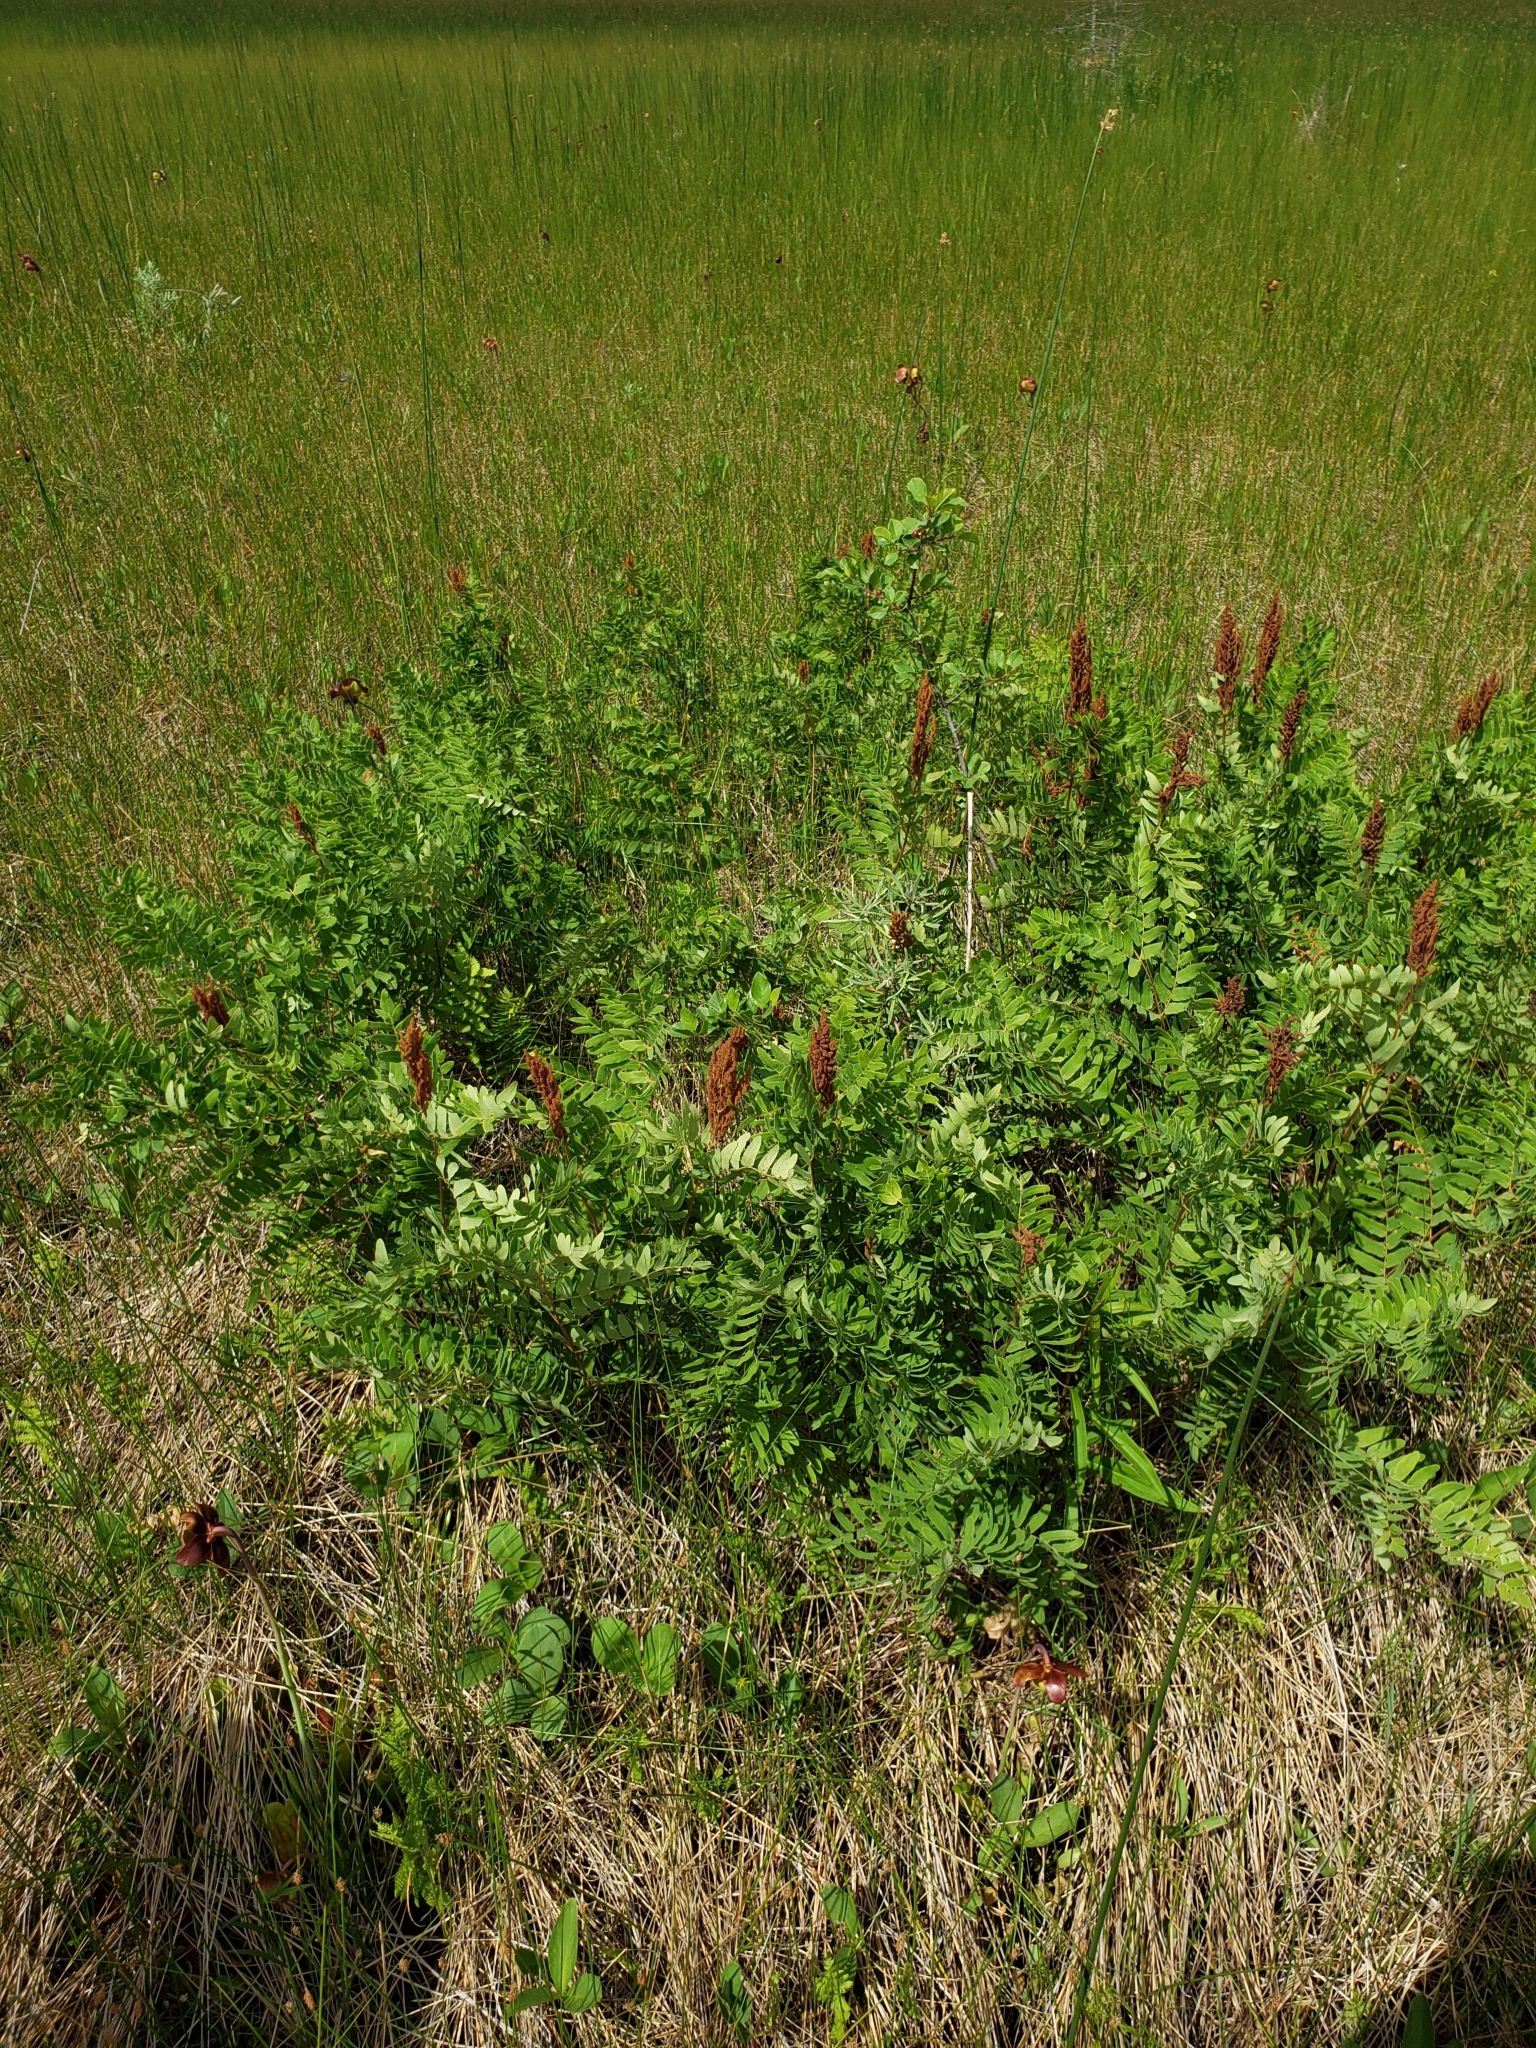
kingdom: Plantae
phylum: Tracheophyta
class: Polypodiopsida
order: Osmundales
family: Osmundaceae
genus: Osmunda
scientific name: Osmunda spectabilis
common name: American royal fern
